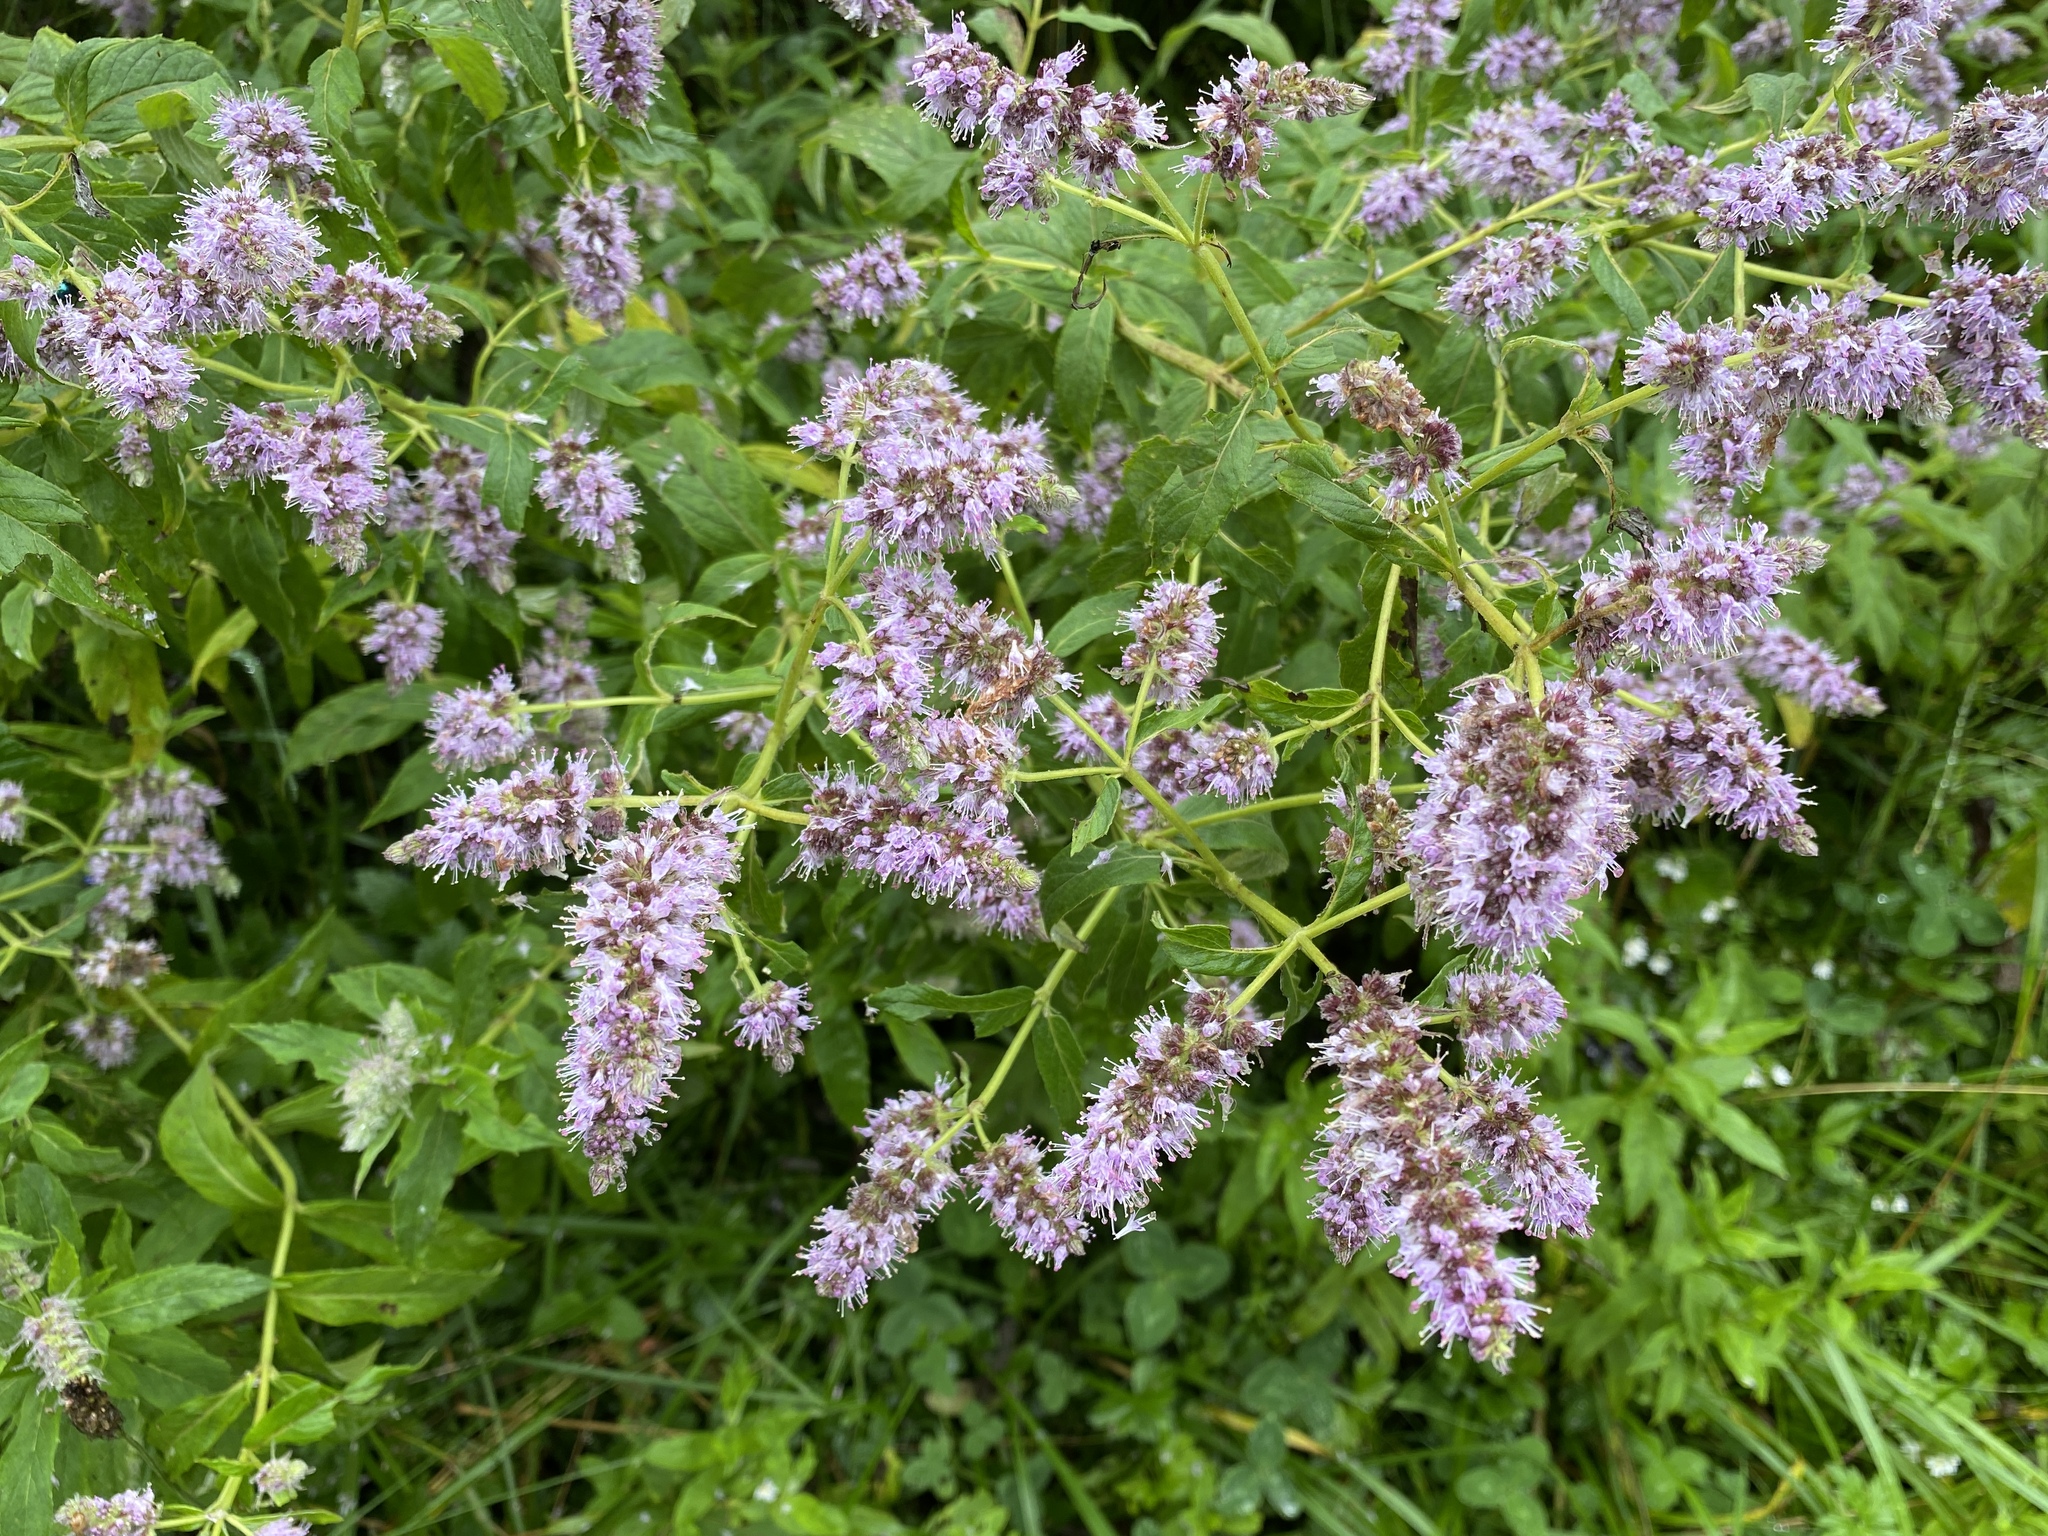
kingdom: Plantae
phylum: Tracheophyta
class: Magnoliopsida
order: Lamiales
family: Lamiaceae
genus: Mentha
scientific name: Mentha longifolia
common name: Horse mint
